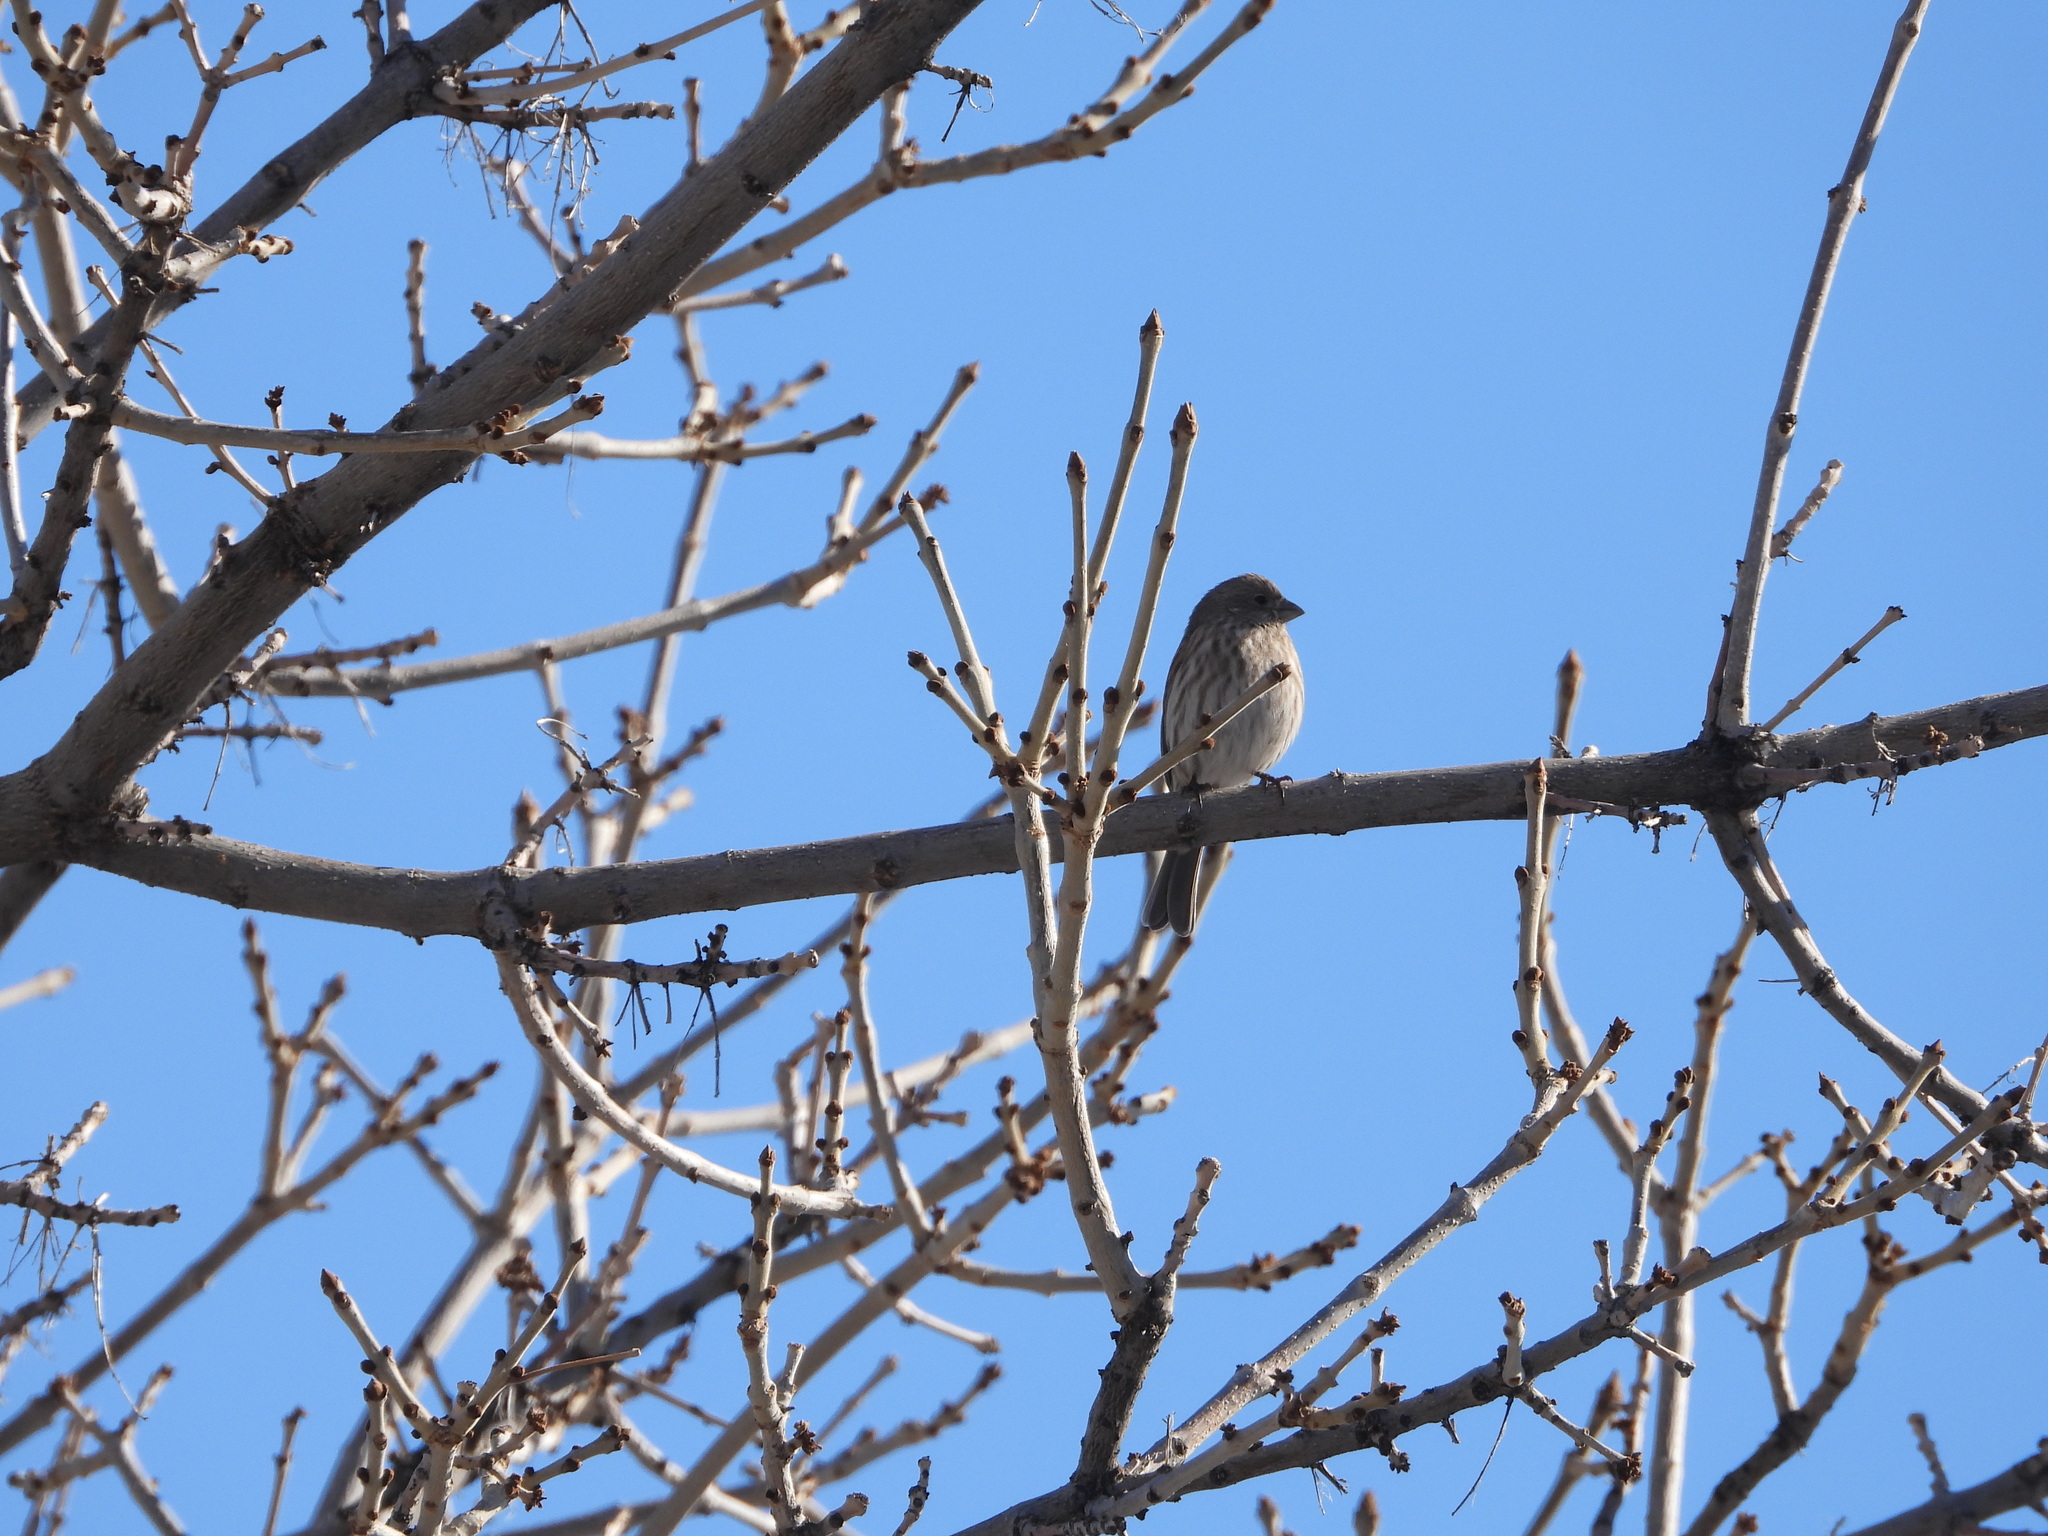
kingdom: Animalia
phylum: Chordata
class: Aves
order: Passeriformes
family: Fringillidae
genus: Haemorhous
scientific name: Haemorhous mexicanus
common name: House finch
